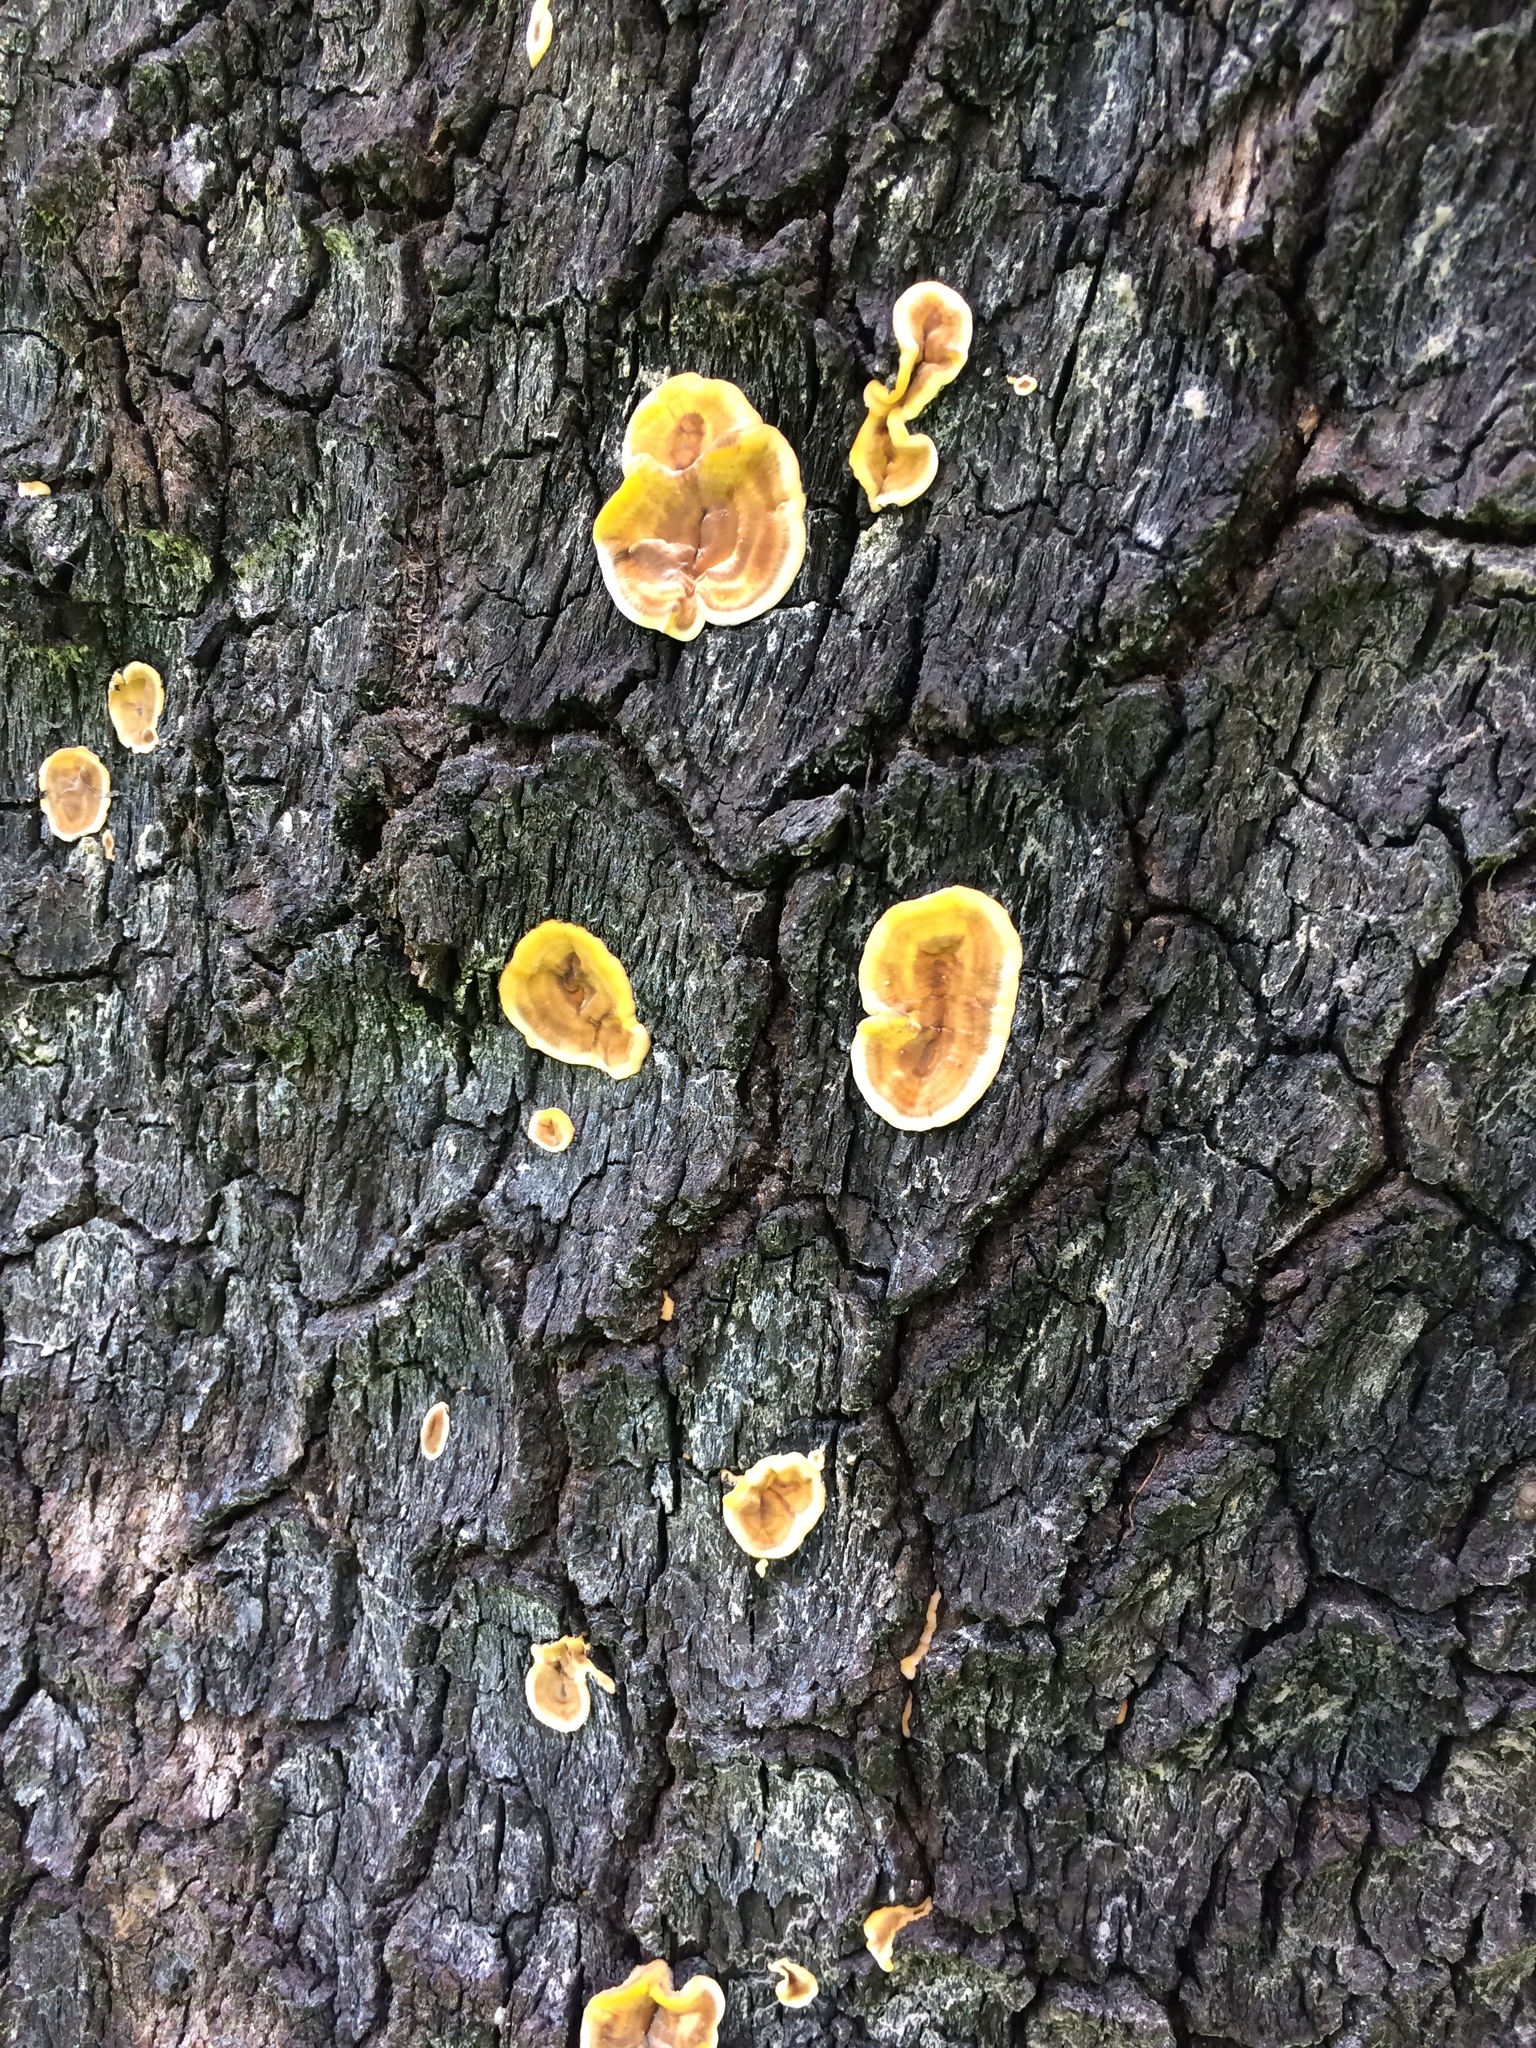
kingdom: Fungi
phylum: Basidiomycota
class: Agaricomycetes
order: Russulales
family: Stereaceae
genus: Stereum
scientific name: Stereum hirsutum
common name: Hairy curtain crust
